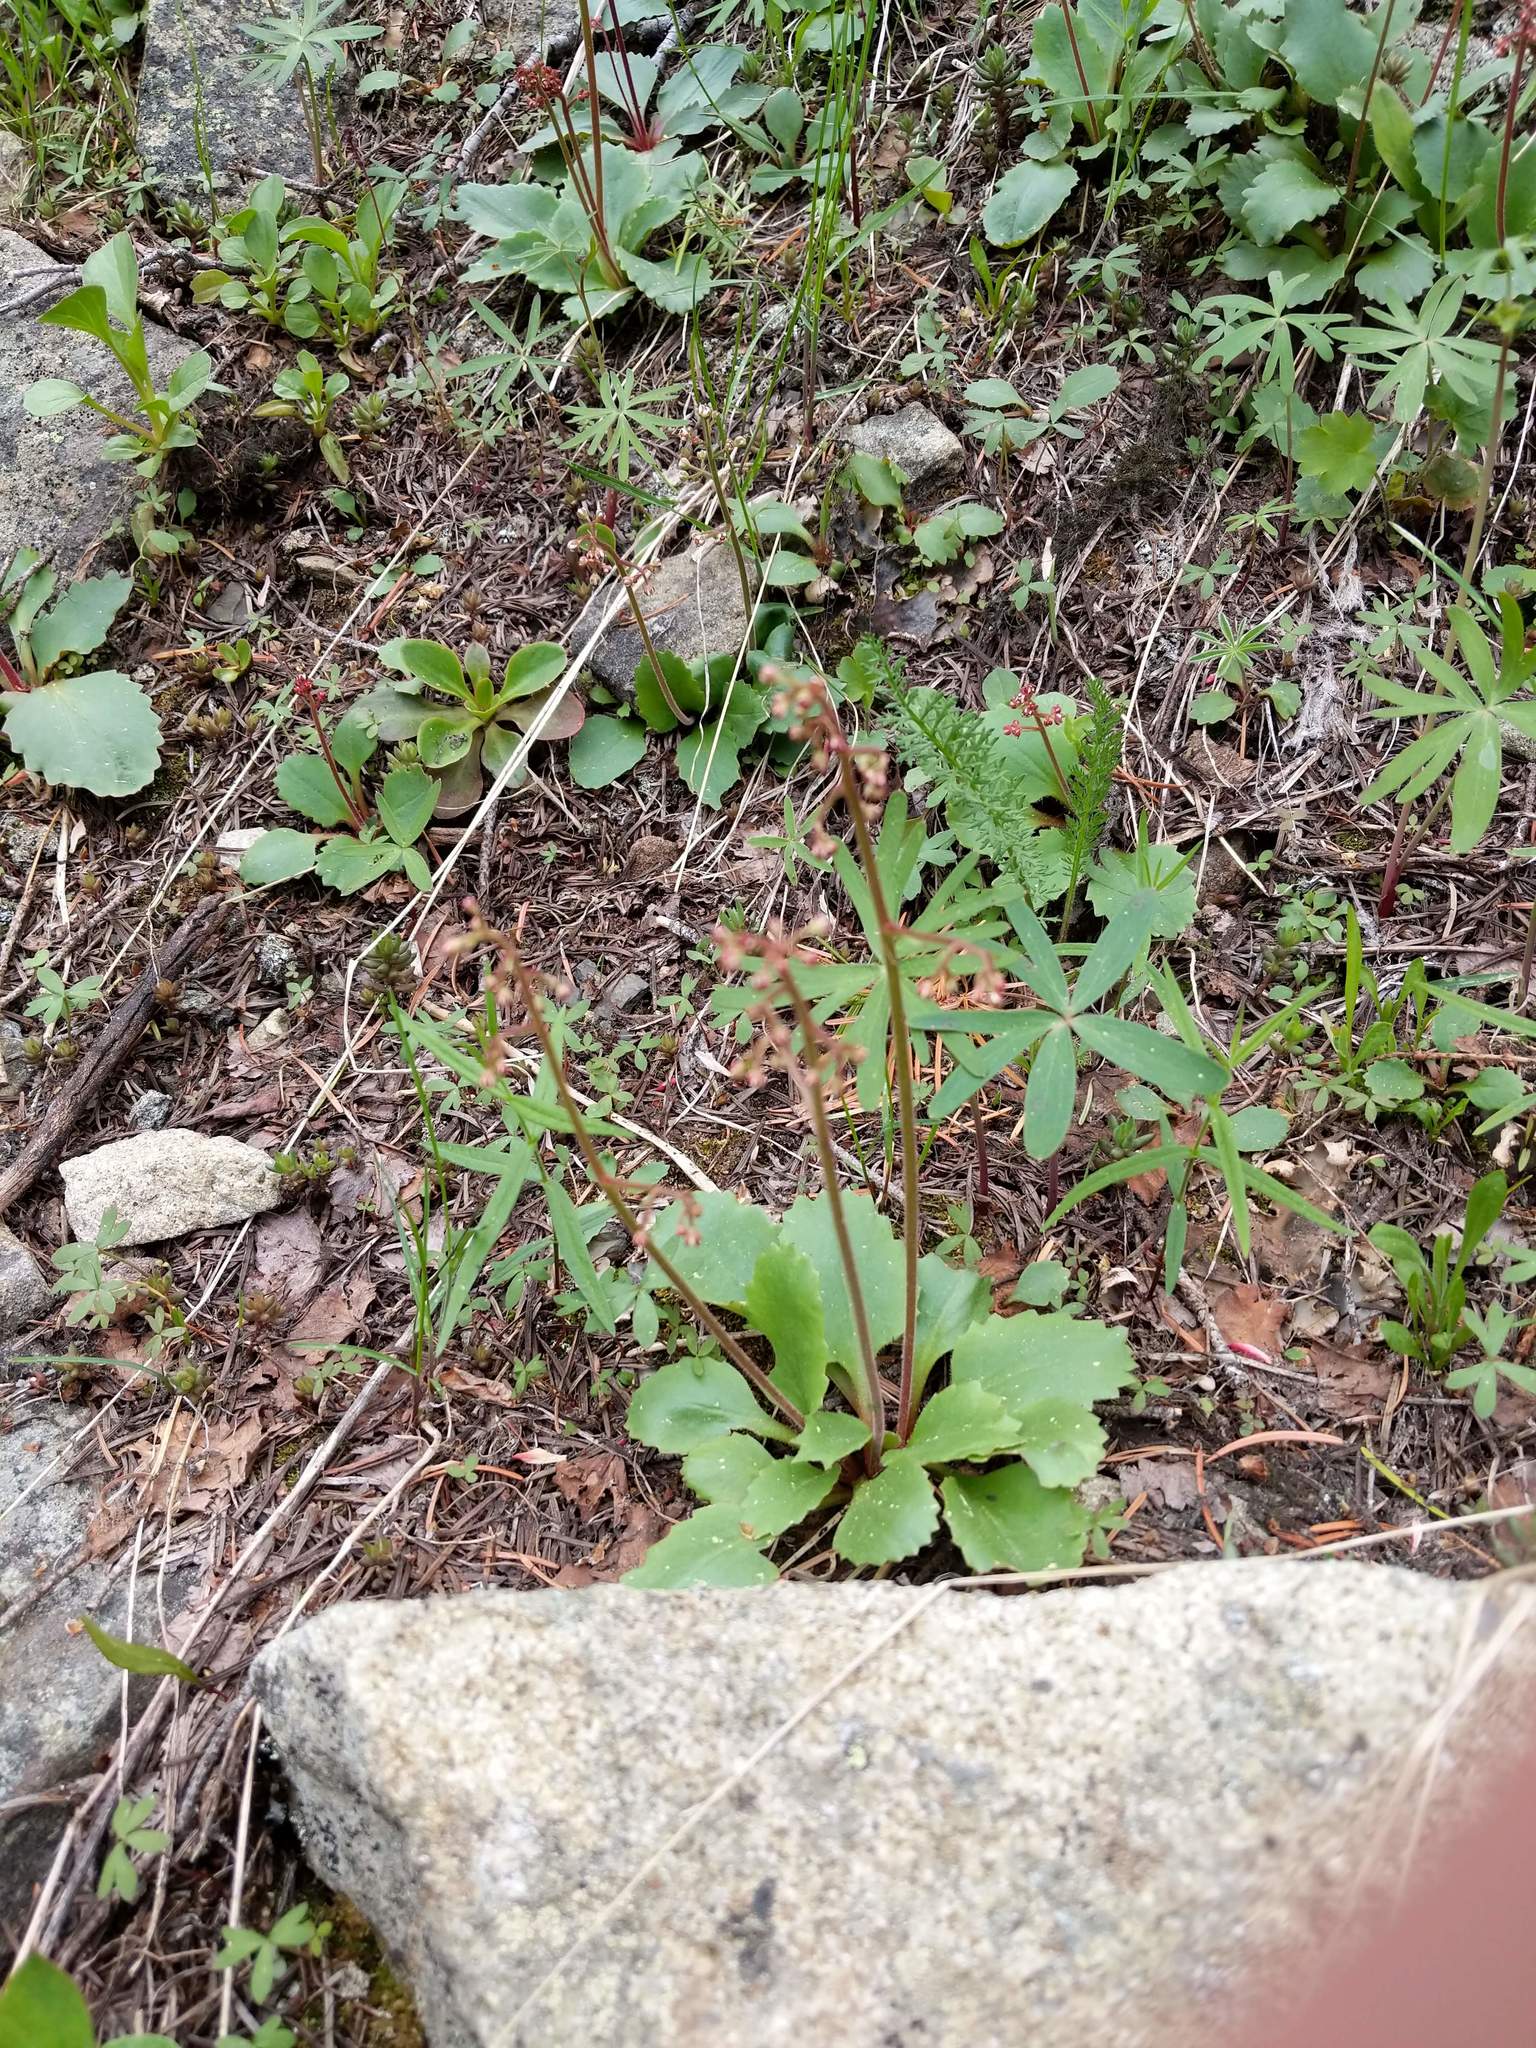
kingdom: Plantae
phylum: Tracheophyta
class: Magnoliopsida
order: Saxifragales
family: Saxifragaceae
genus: Micranthes
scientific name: Micranthes idahoensis
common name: Idaho saxifrage
